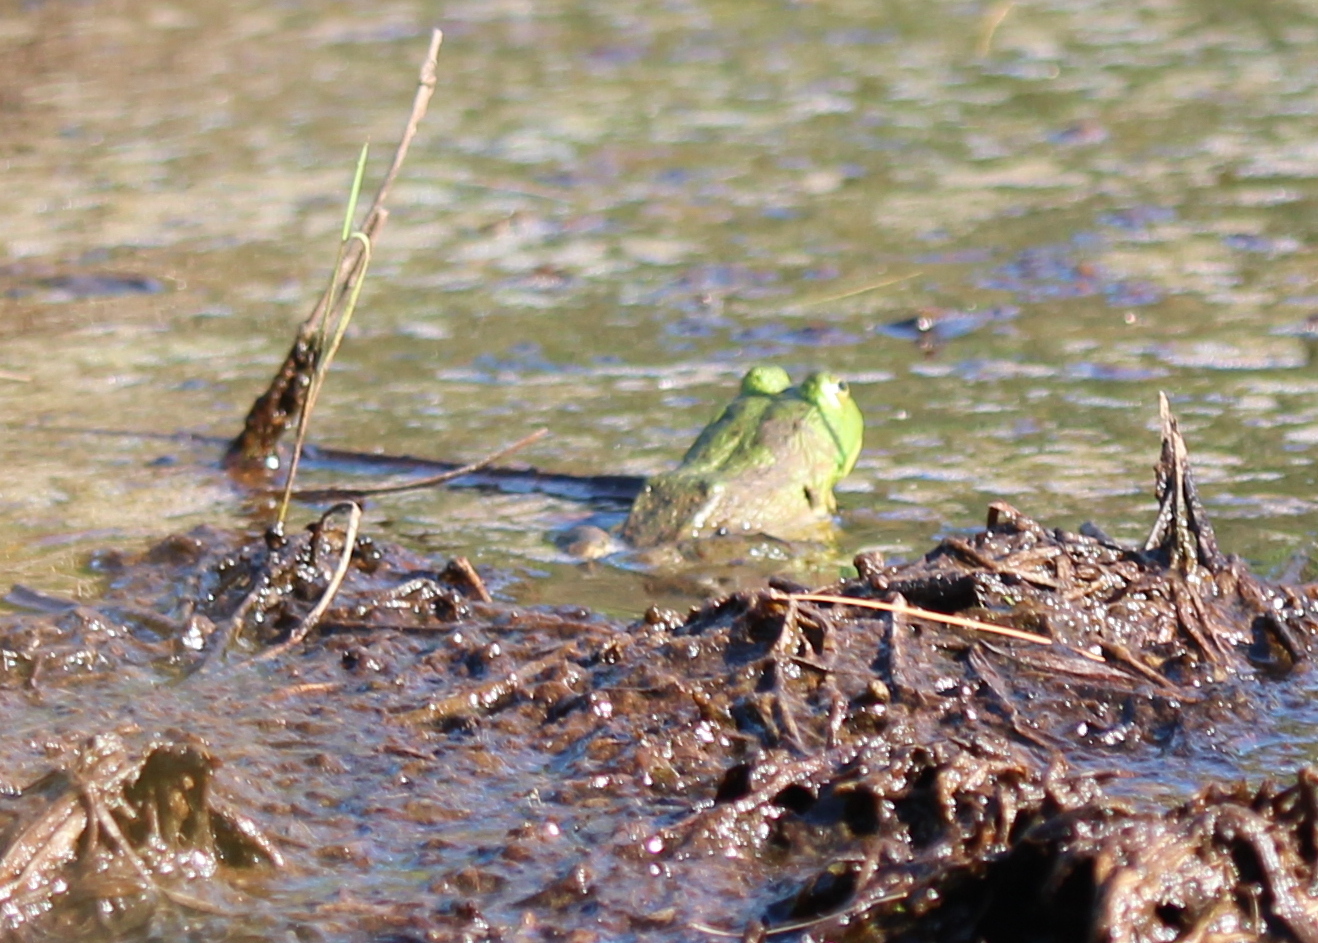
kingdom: Animalia
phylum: Chordata
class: Amphibia
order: Anura
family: Ranidae
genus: Lithobates
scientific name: Lithobates catesbeianus
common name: American bullfrog
